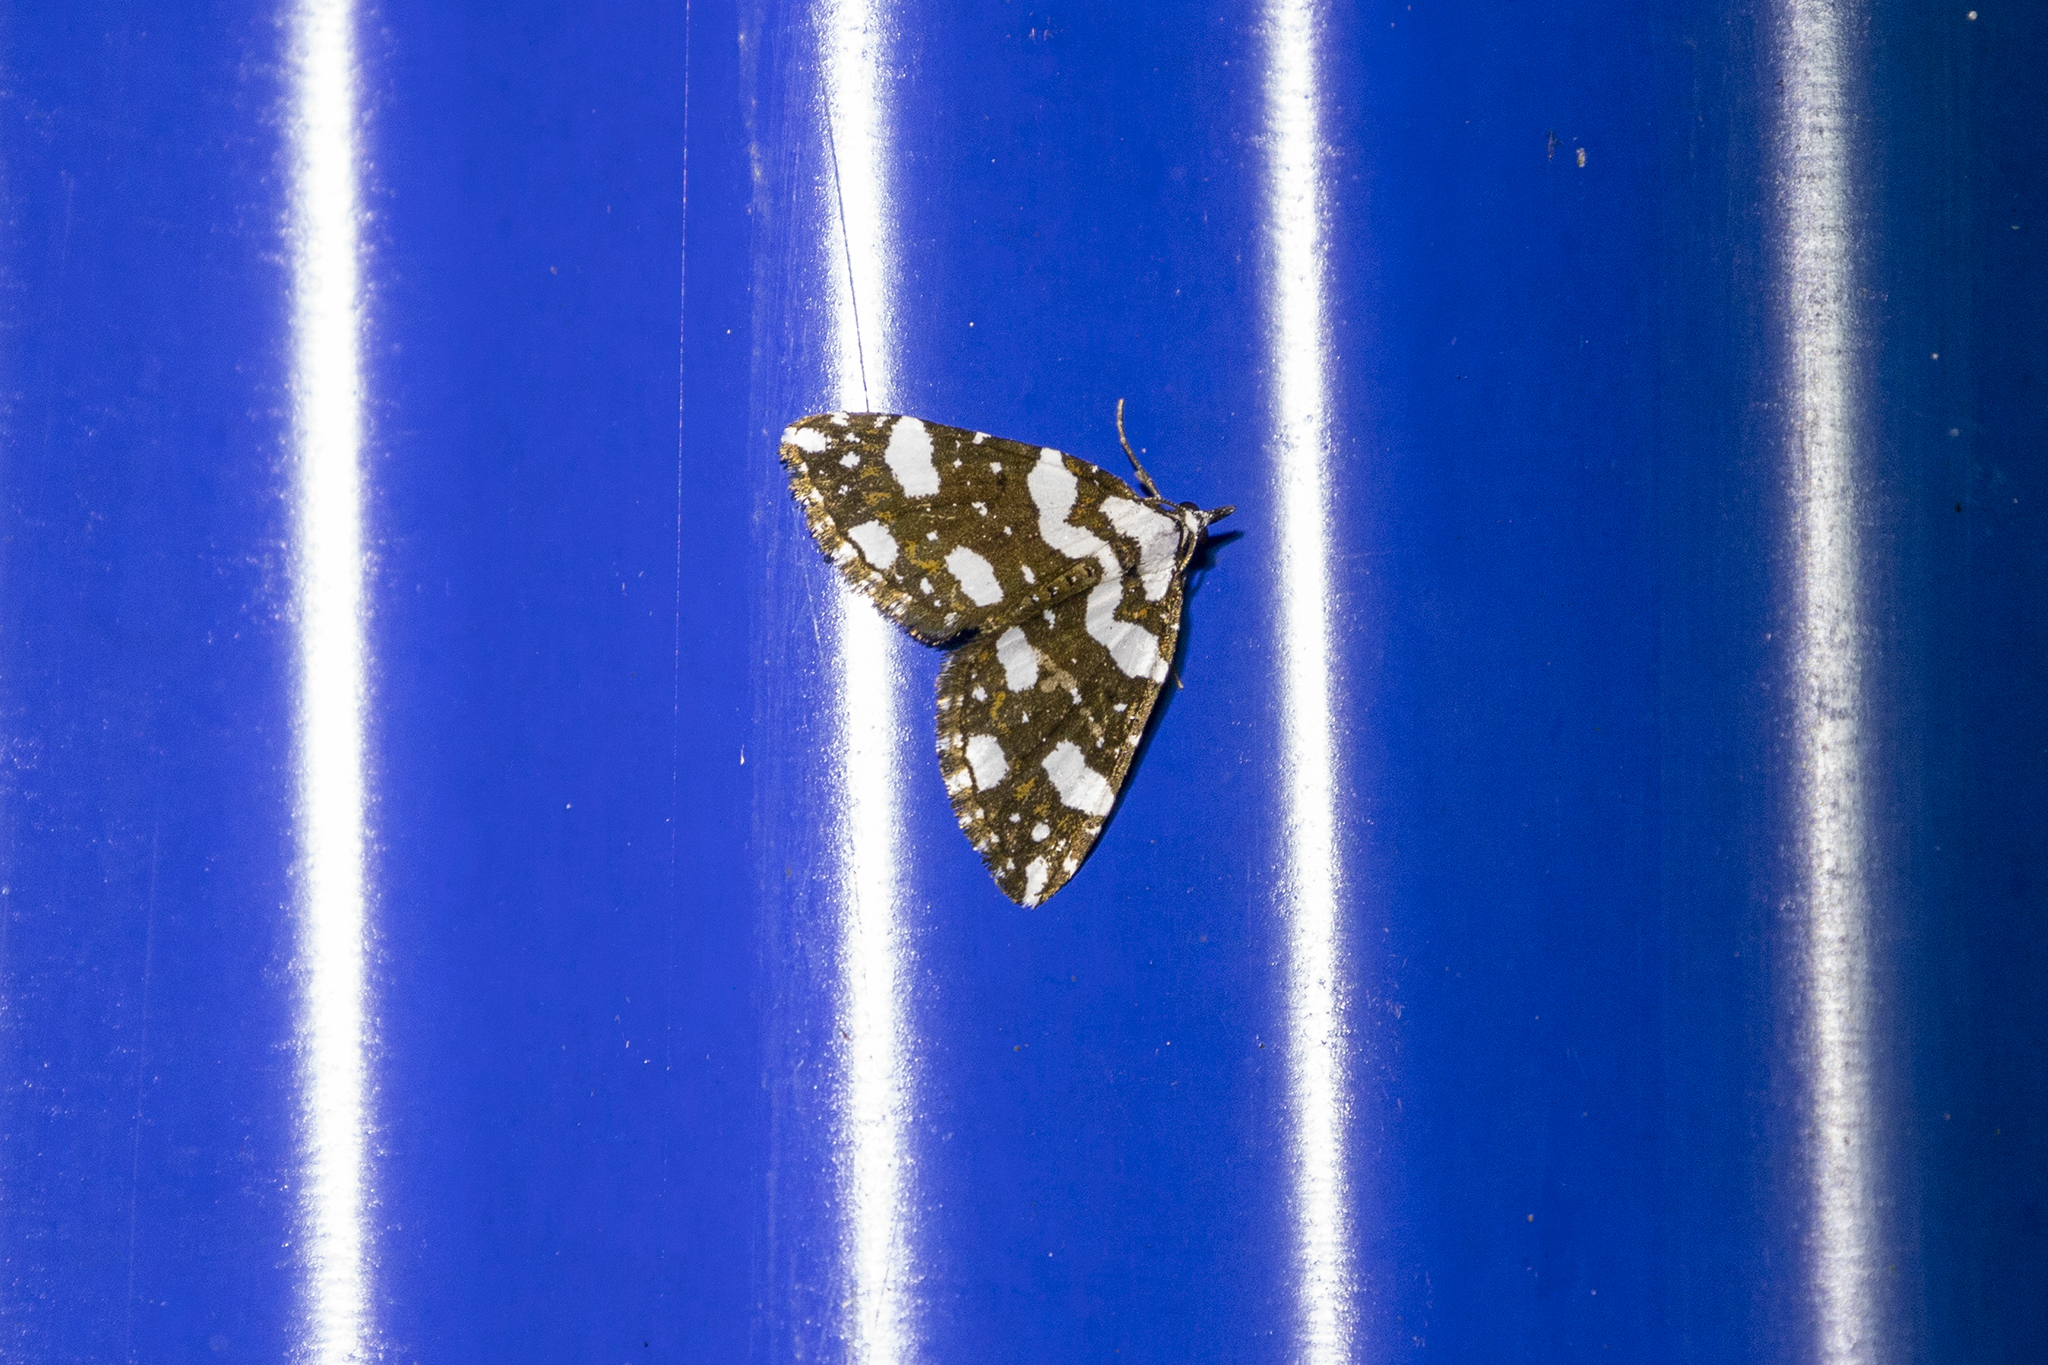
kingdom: Animalia
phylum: Arthropoda
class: Insecta
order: Lepidoptera
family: Geometridae
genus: Perizoma
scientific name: Perizoma maculata
